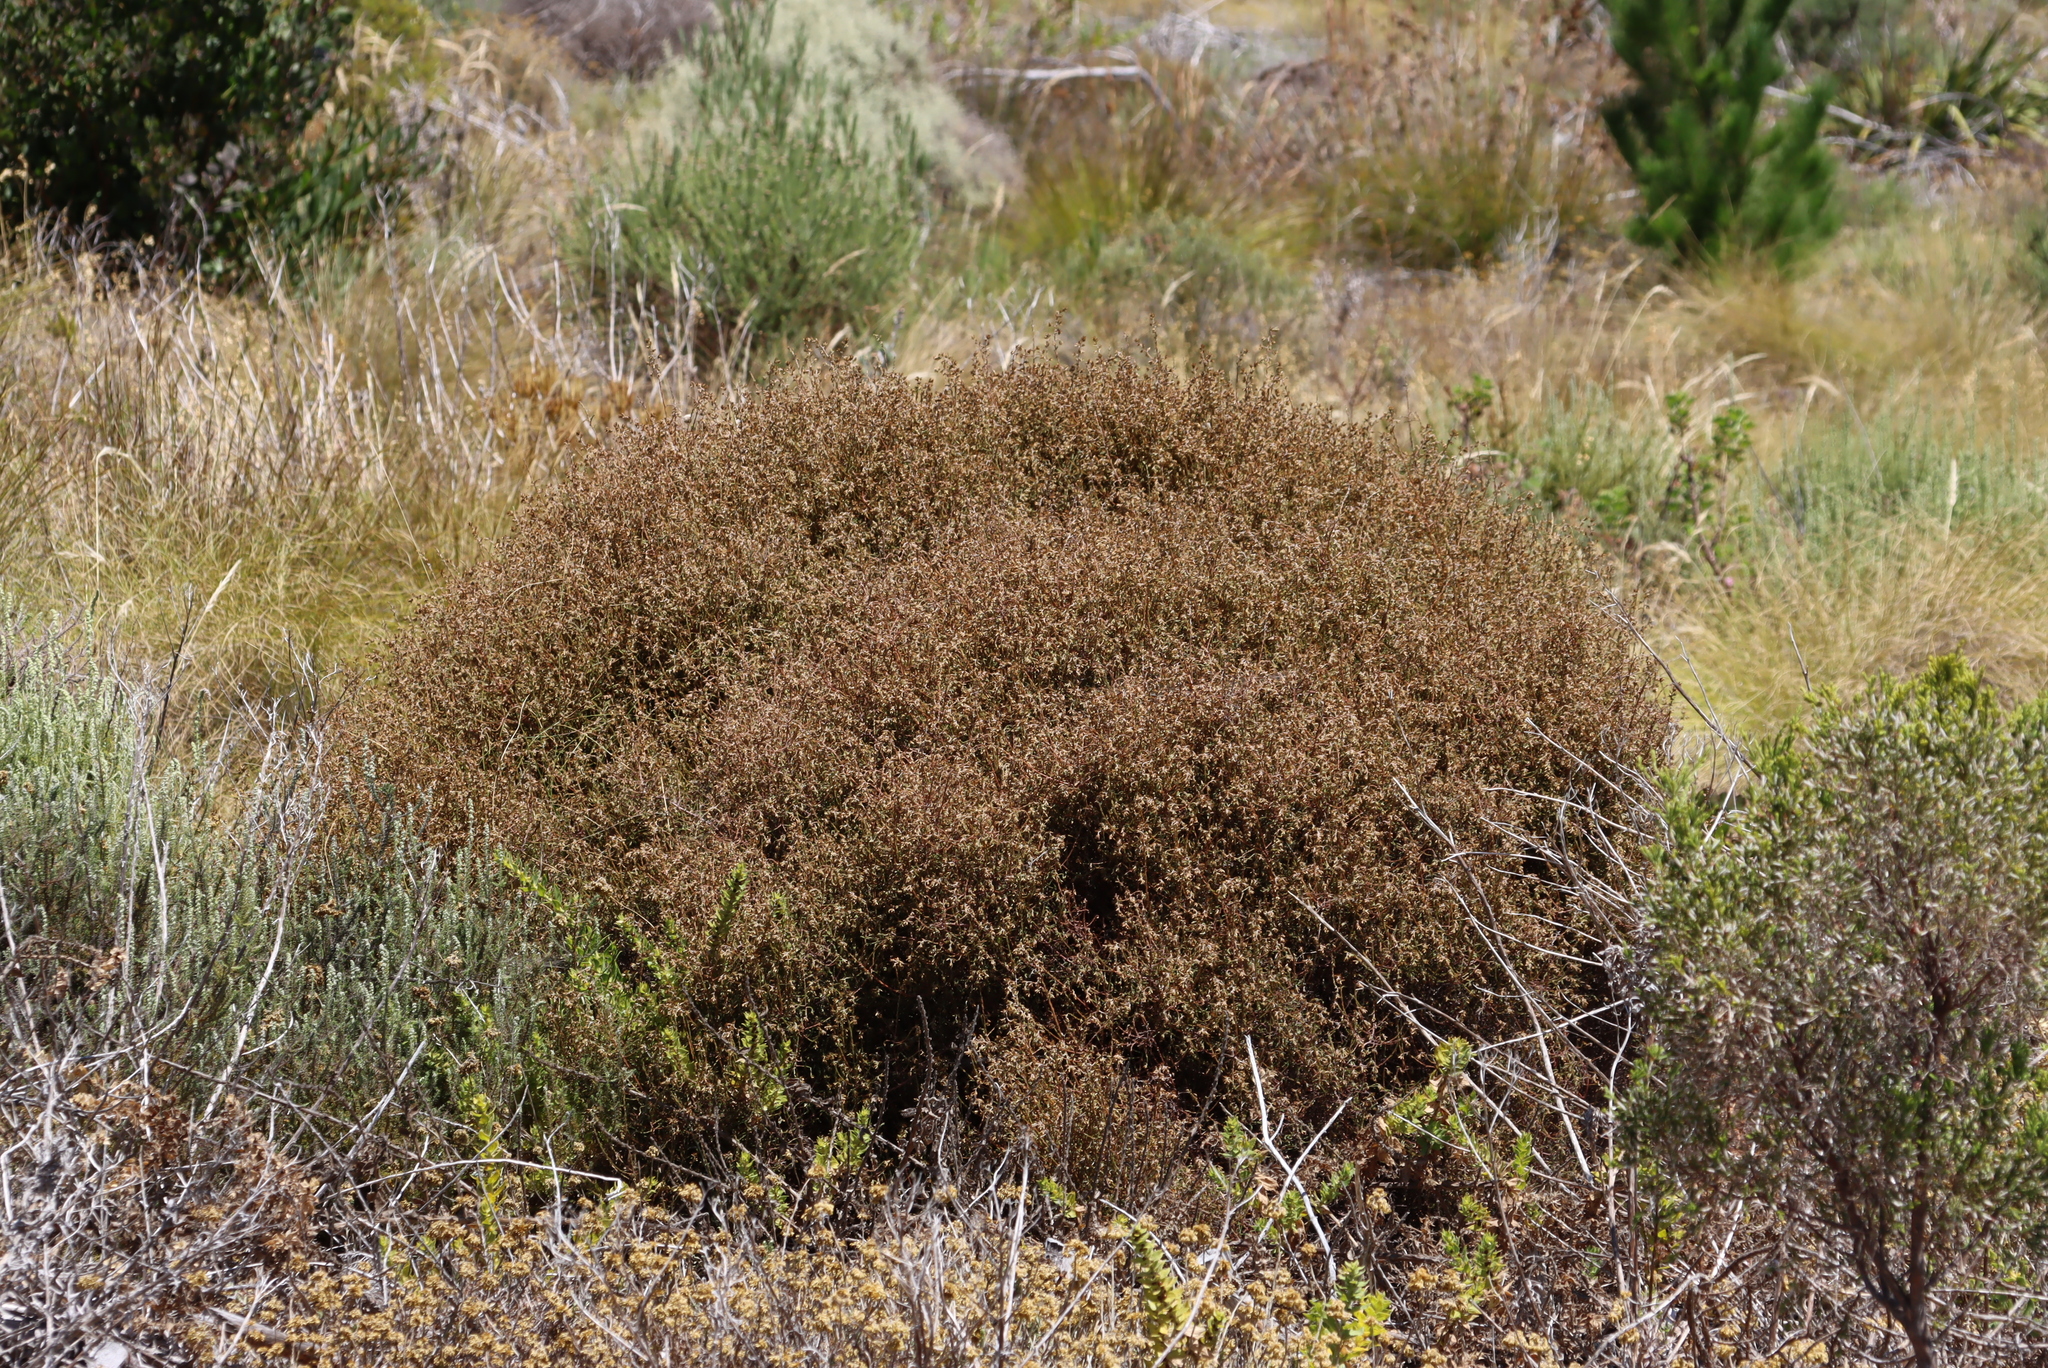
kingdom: Plantae
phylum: Tracheophyta
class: Magnoliopsida
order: Asterales
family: Asteraceae
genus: Myrovernix
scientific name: Myrovernix scaber
